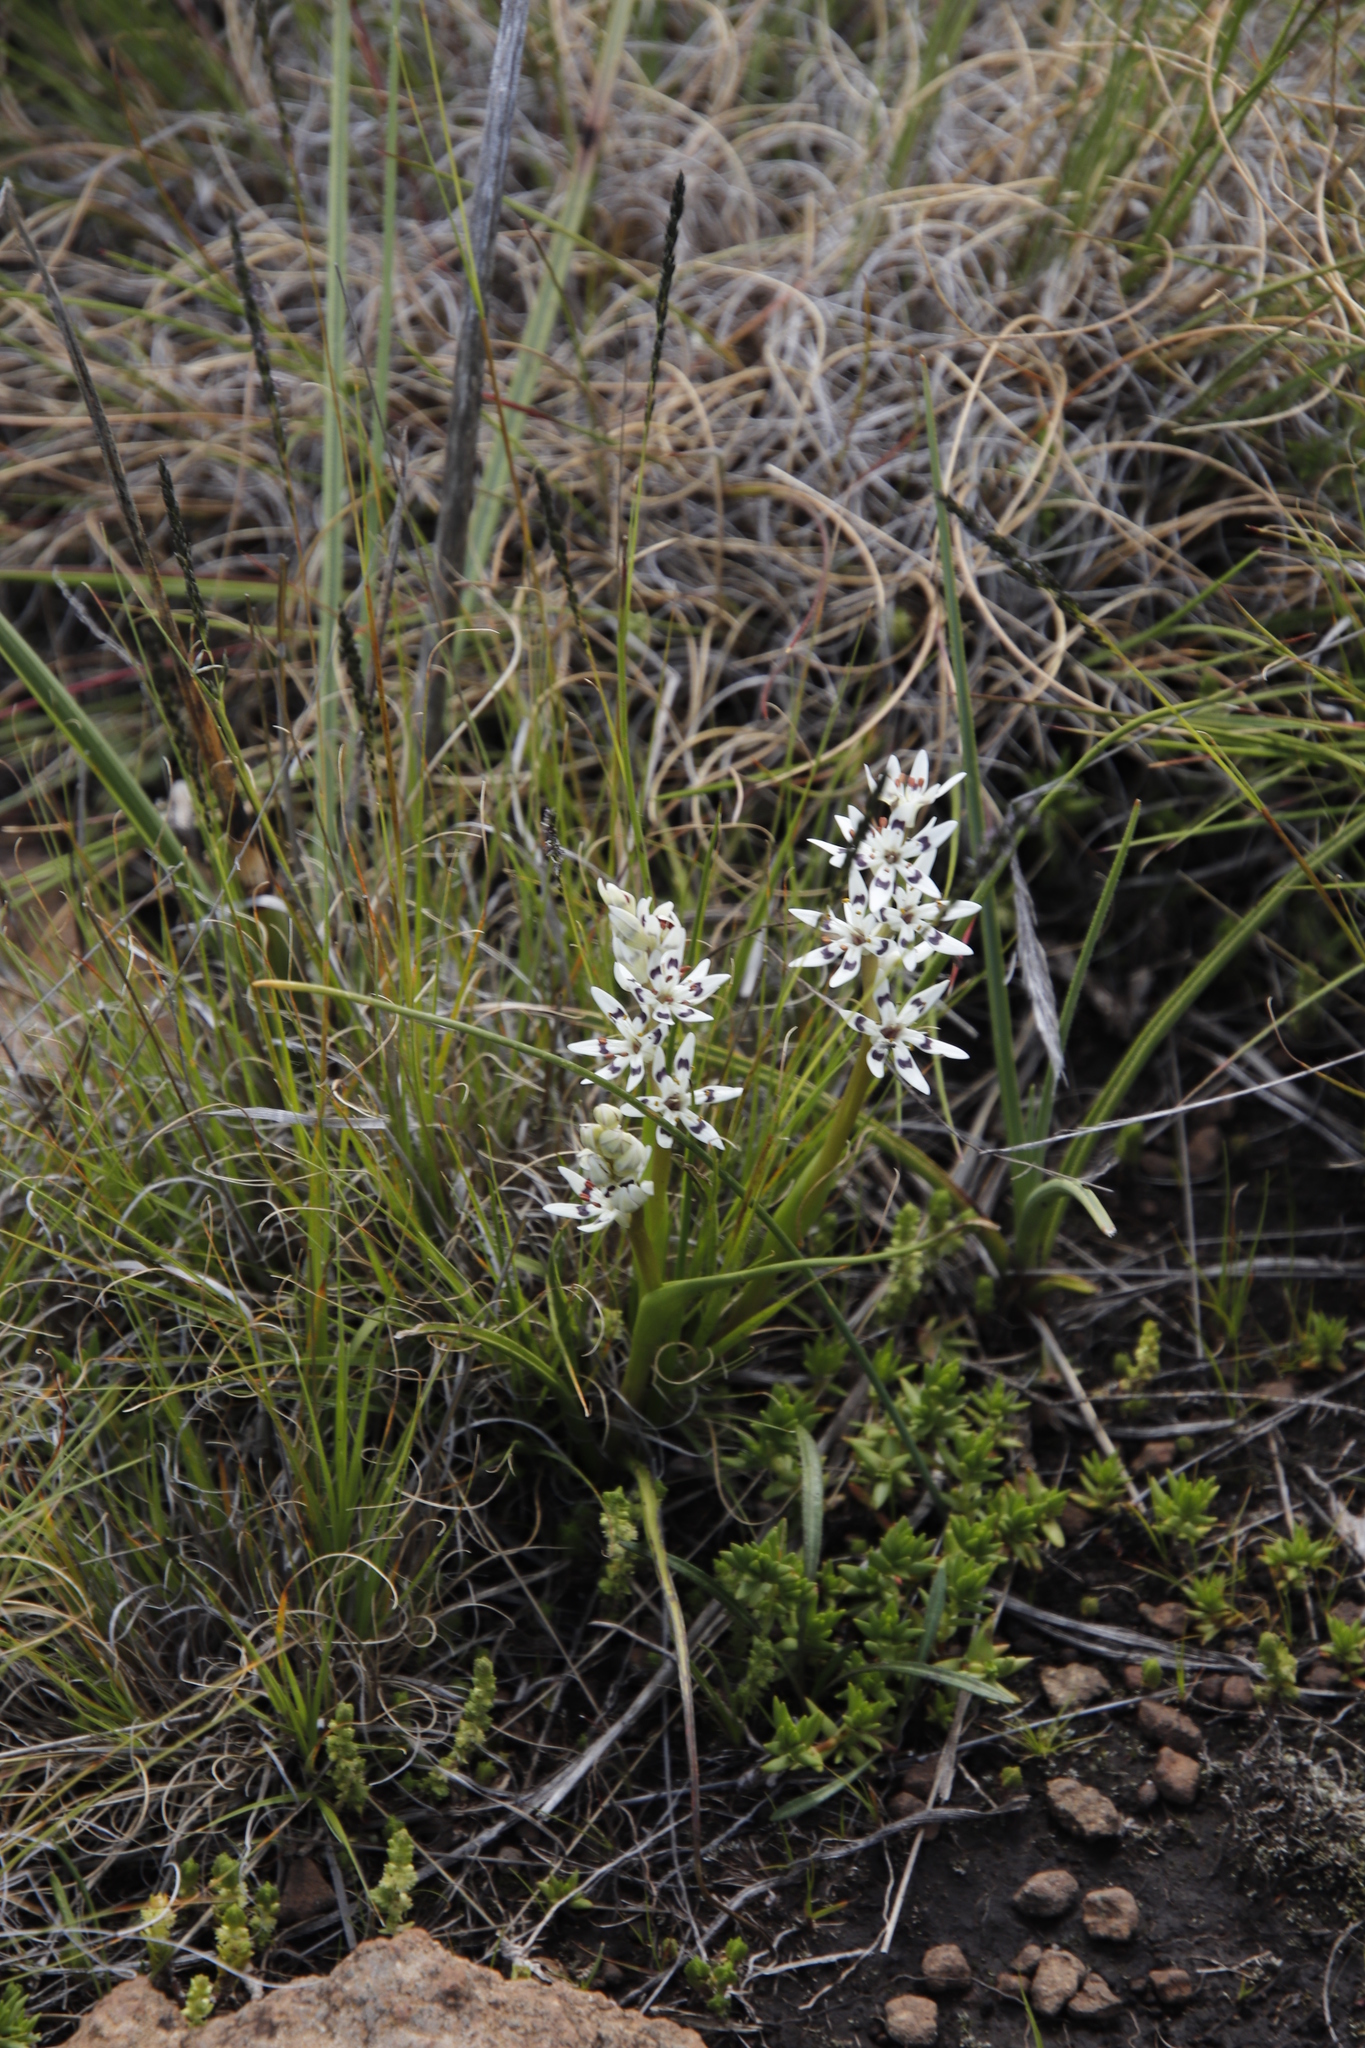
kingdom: Plantae
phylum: Tracheophyta
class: Liliopsida
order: Liliales
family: Colchicaceae
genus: Wurmbea
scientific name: Wurmbea elatior
